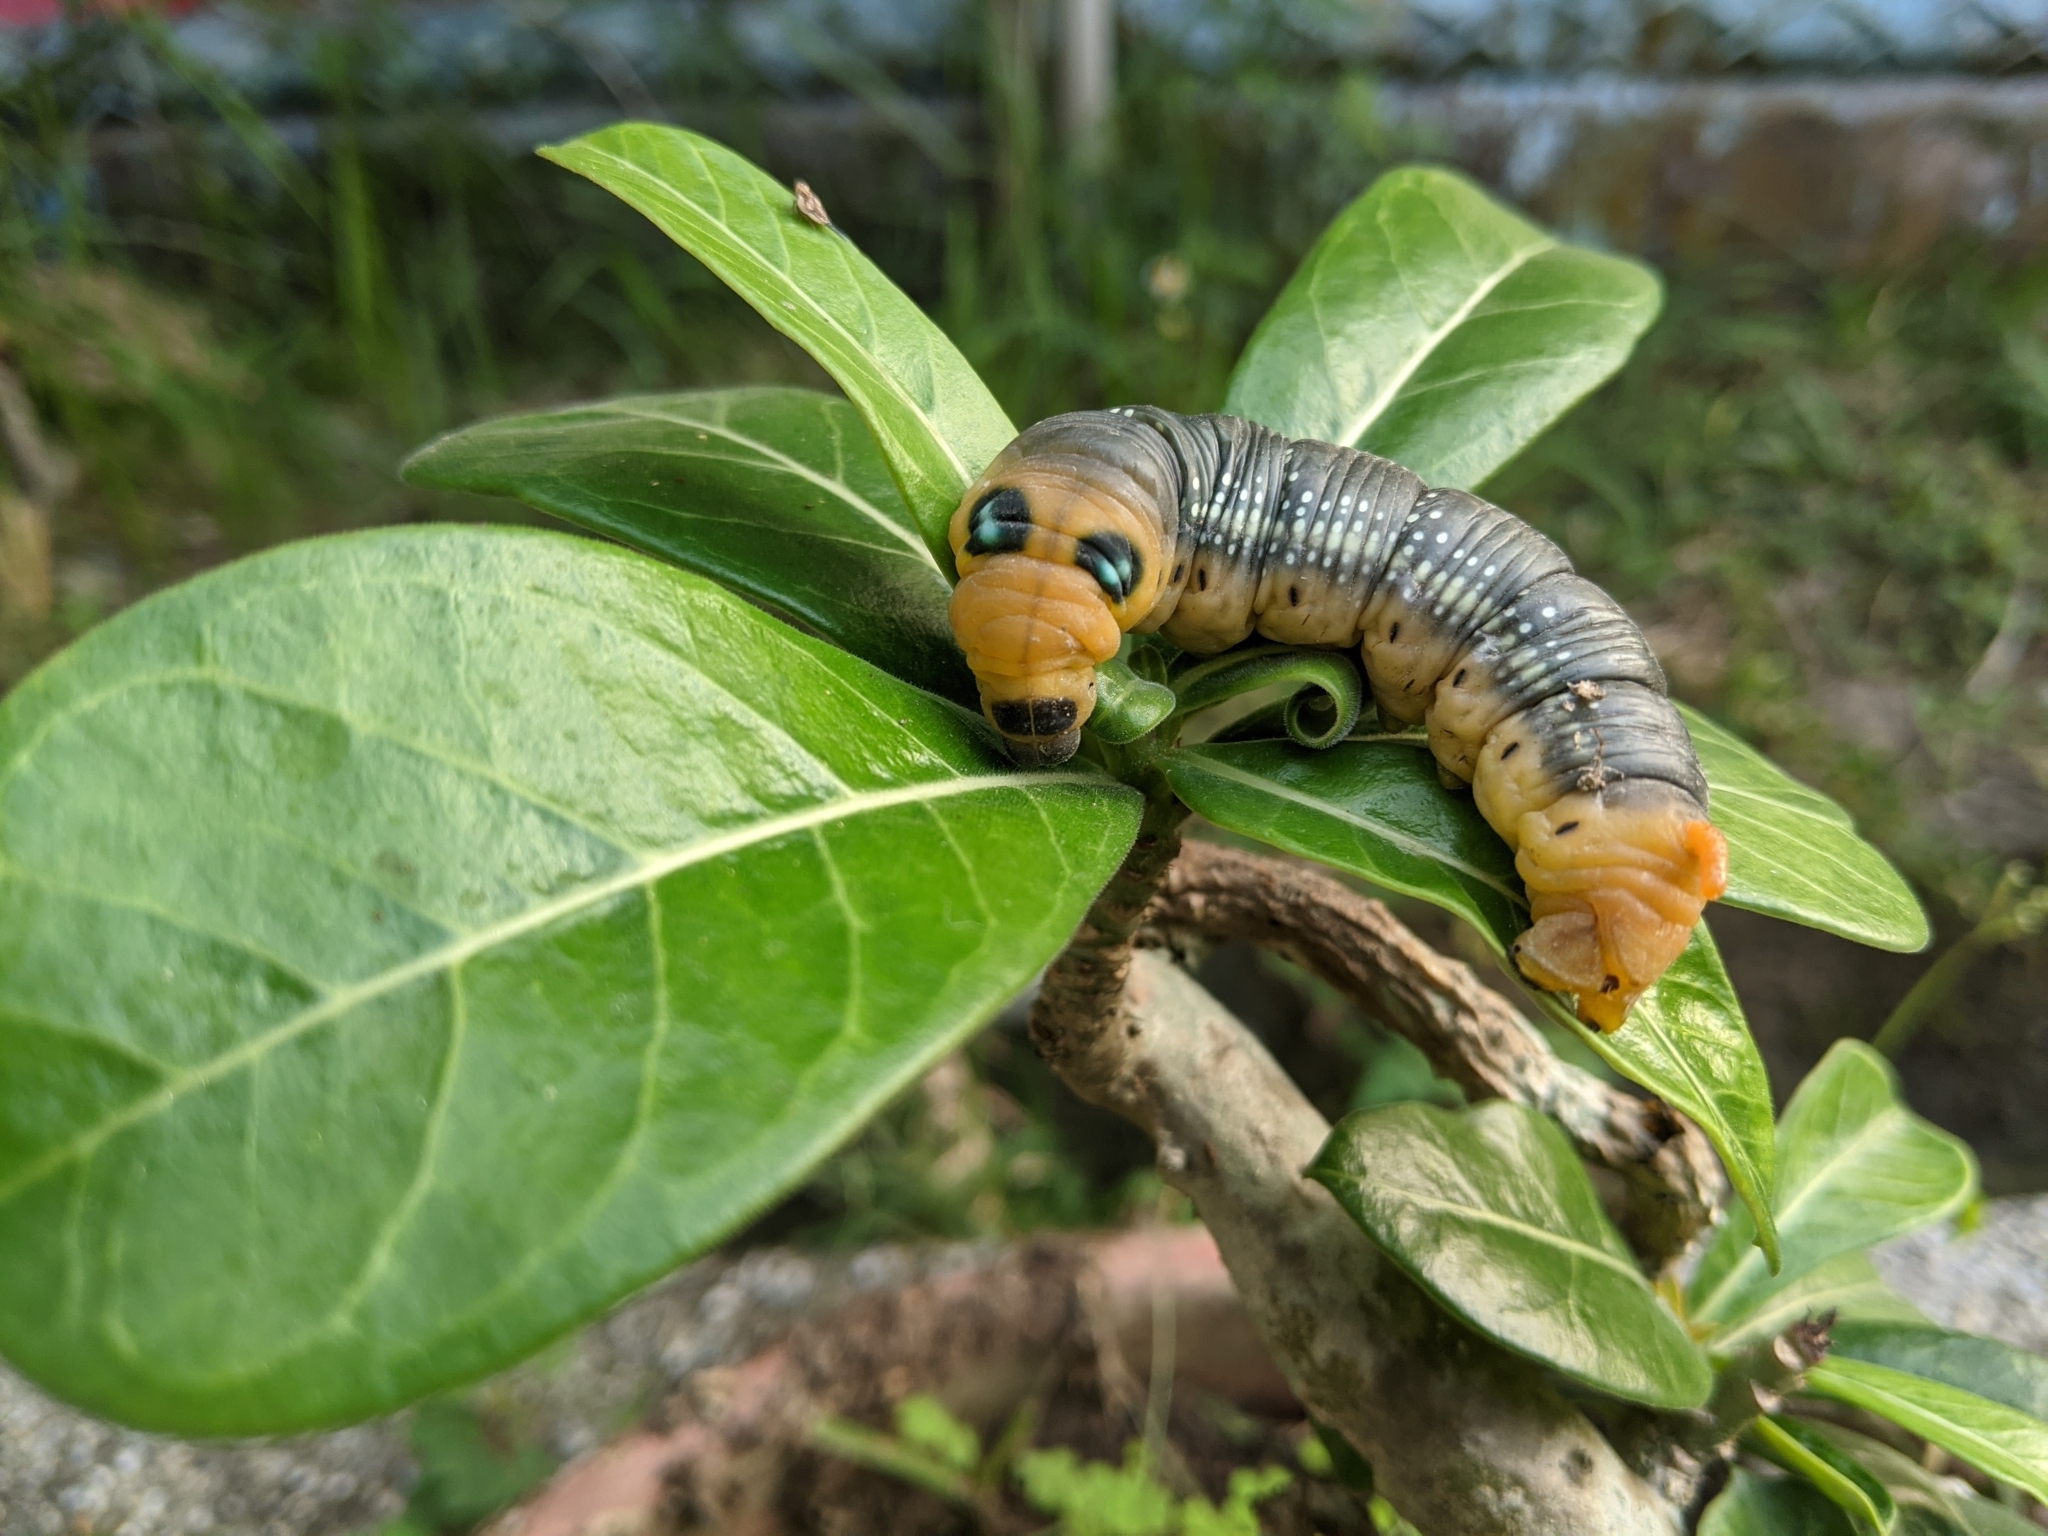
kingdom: Animalia
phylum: Arthropoda
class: Insecta
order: Lepidoptera
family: Sphingidae
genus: Daphnis
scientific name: Daphnis nerii
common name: Oleander hawk-moth
